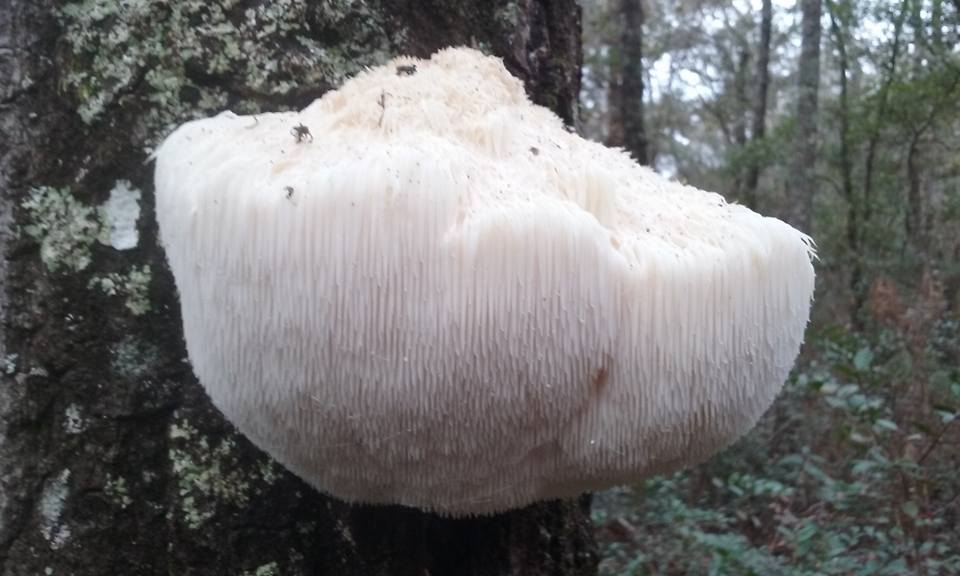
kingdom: Fungi
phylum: Basidiomycota
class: Agaricomycetes
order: Russulales
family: Hericiaceae
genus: Hericium
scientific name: Hericium erinaceus
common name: Bearded tooth
